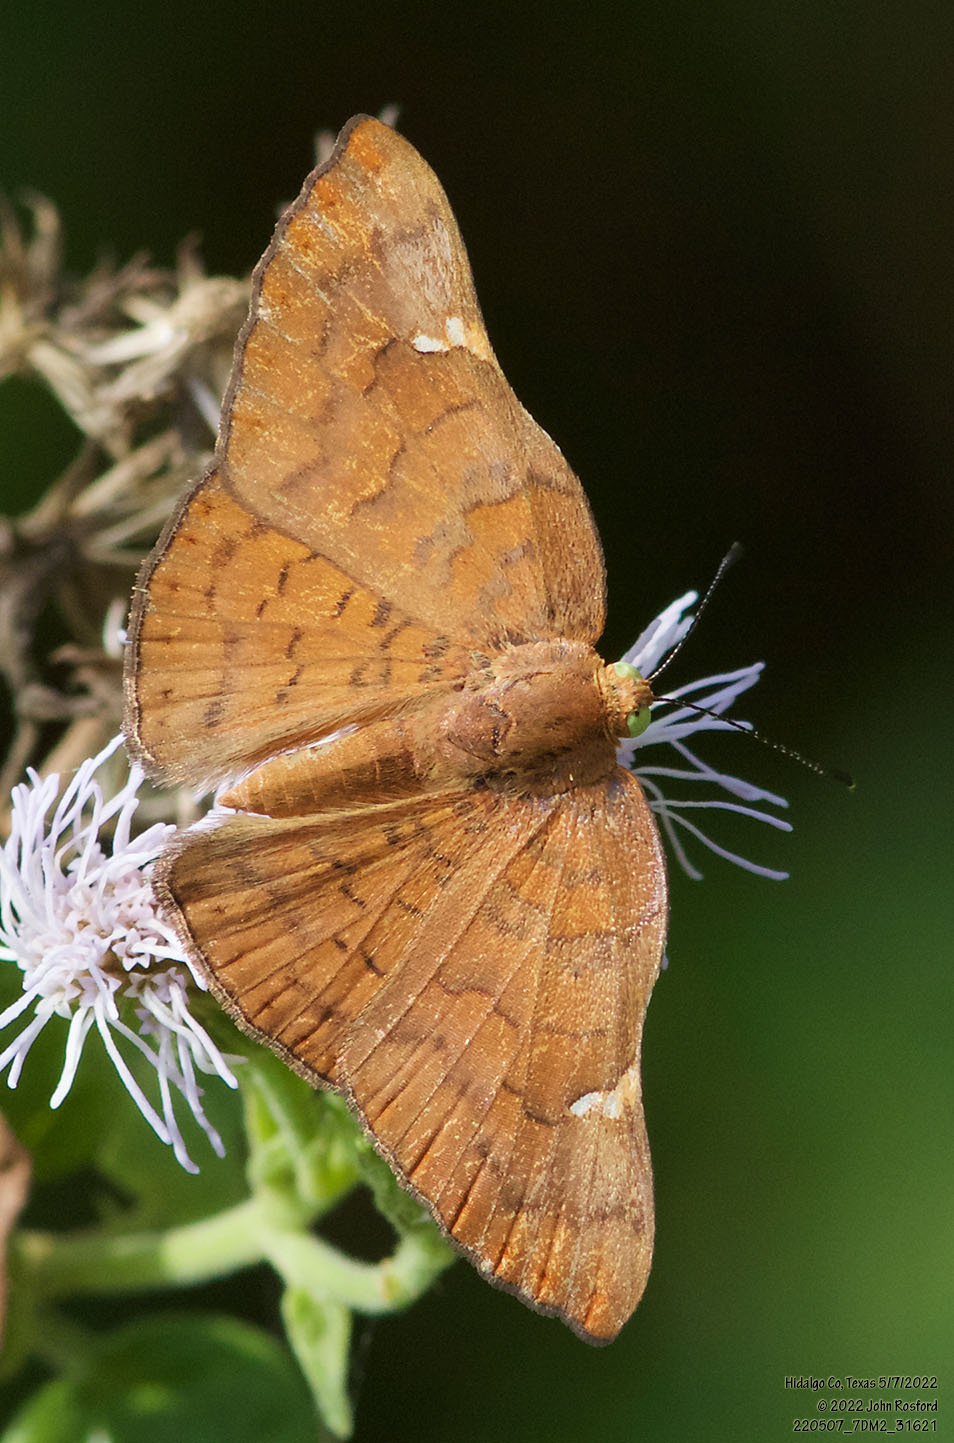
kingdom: Animalia
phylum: Arthropoda
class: Insecta
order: Lepidoptera
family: Riodinidae
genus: Curvie
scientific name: Curvie emesia
